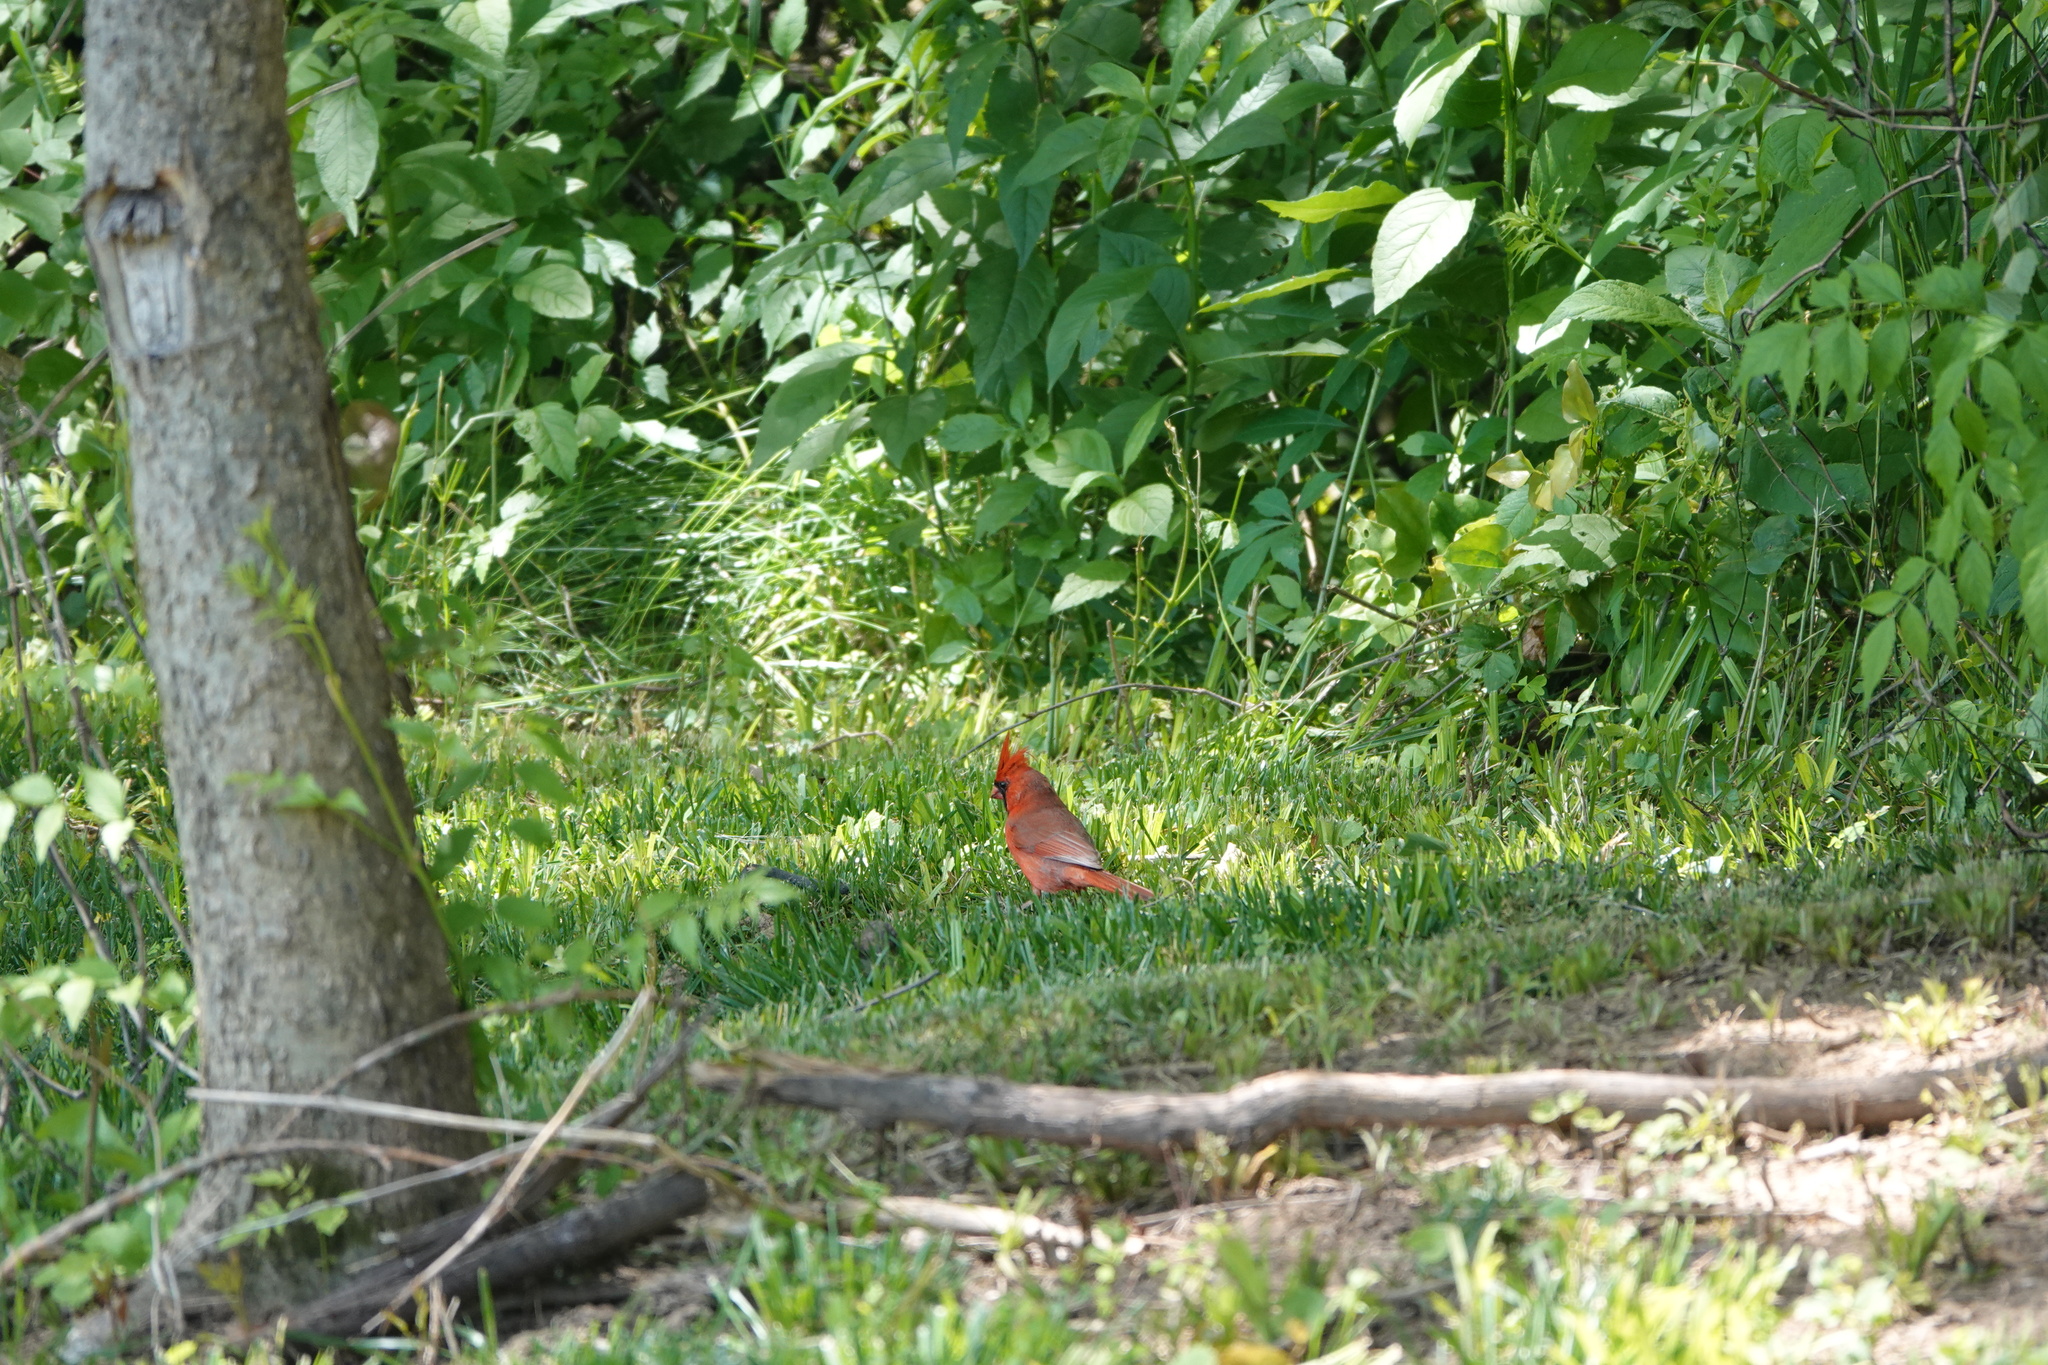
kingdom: Animalia
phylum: Chordata
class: Aves
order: Passeriformes
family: Cardinalidae
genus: Cardinalis
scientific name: Cardinalis cardinalis
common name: Northern cardinal
